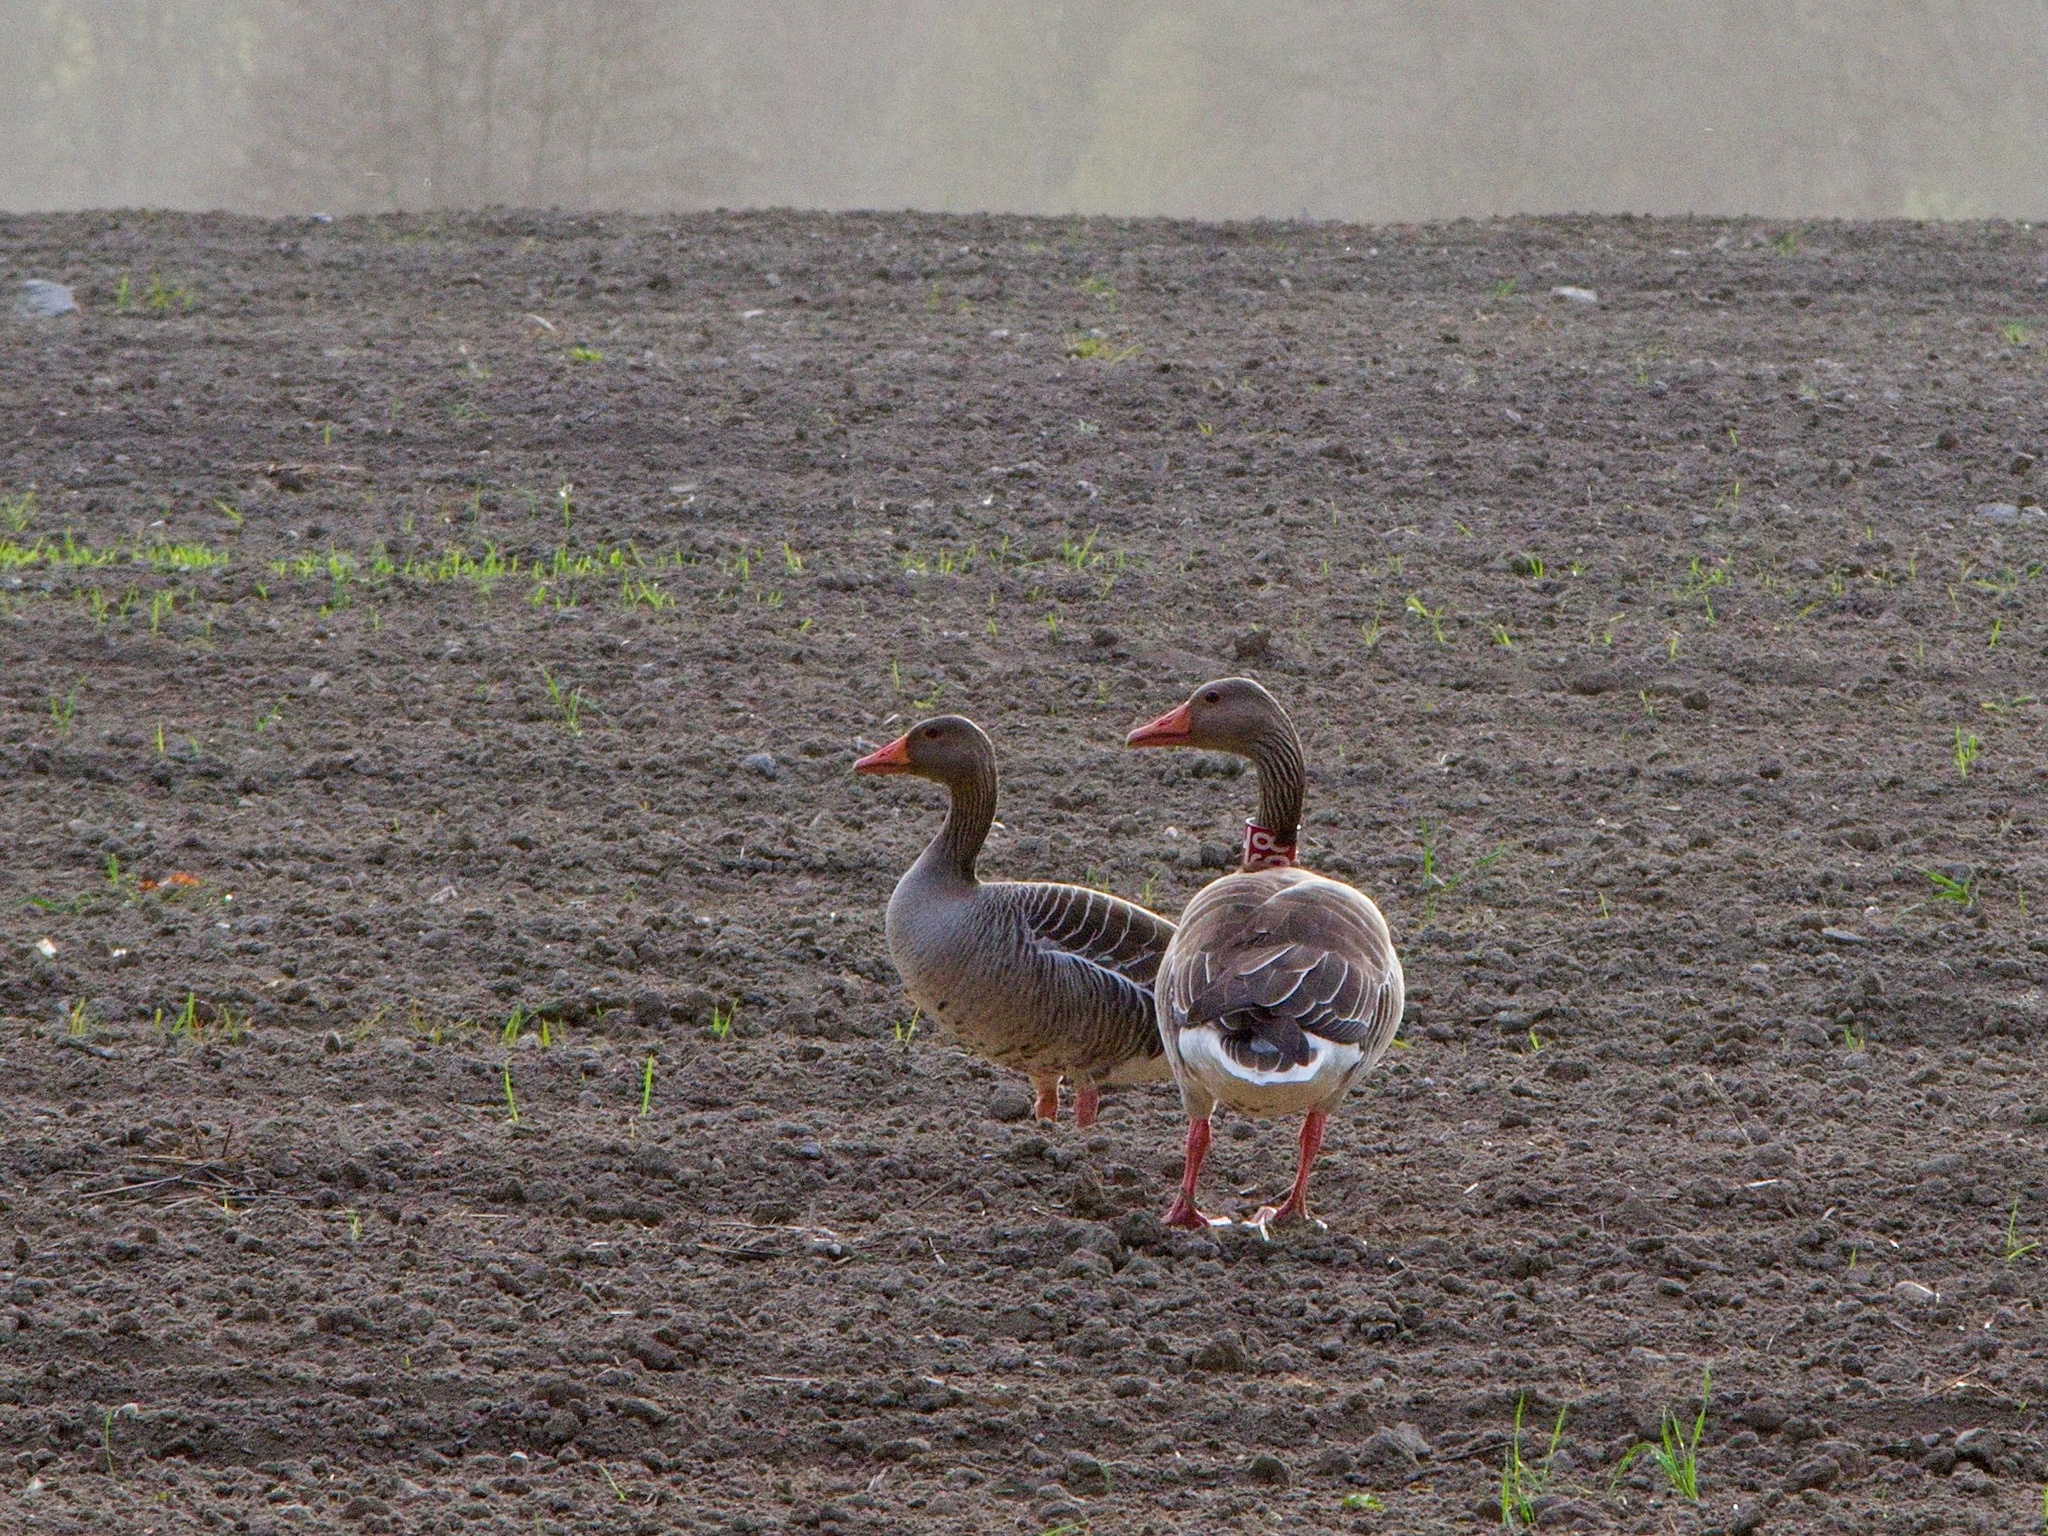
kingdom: Animalia
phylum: Chordata
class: Aves
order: Anseriformes
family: Anatidae
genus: Anser
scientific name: Anser anser
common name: Greylag goose
